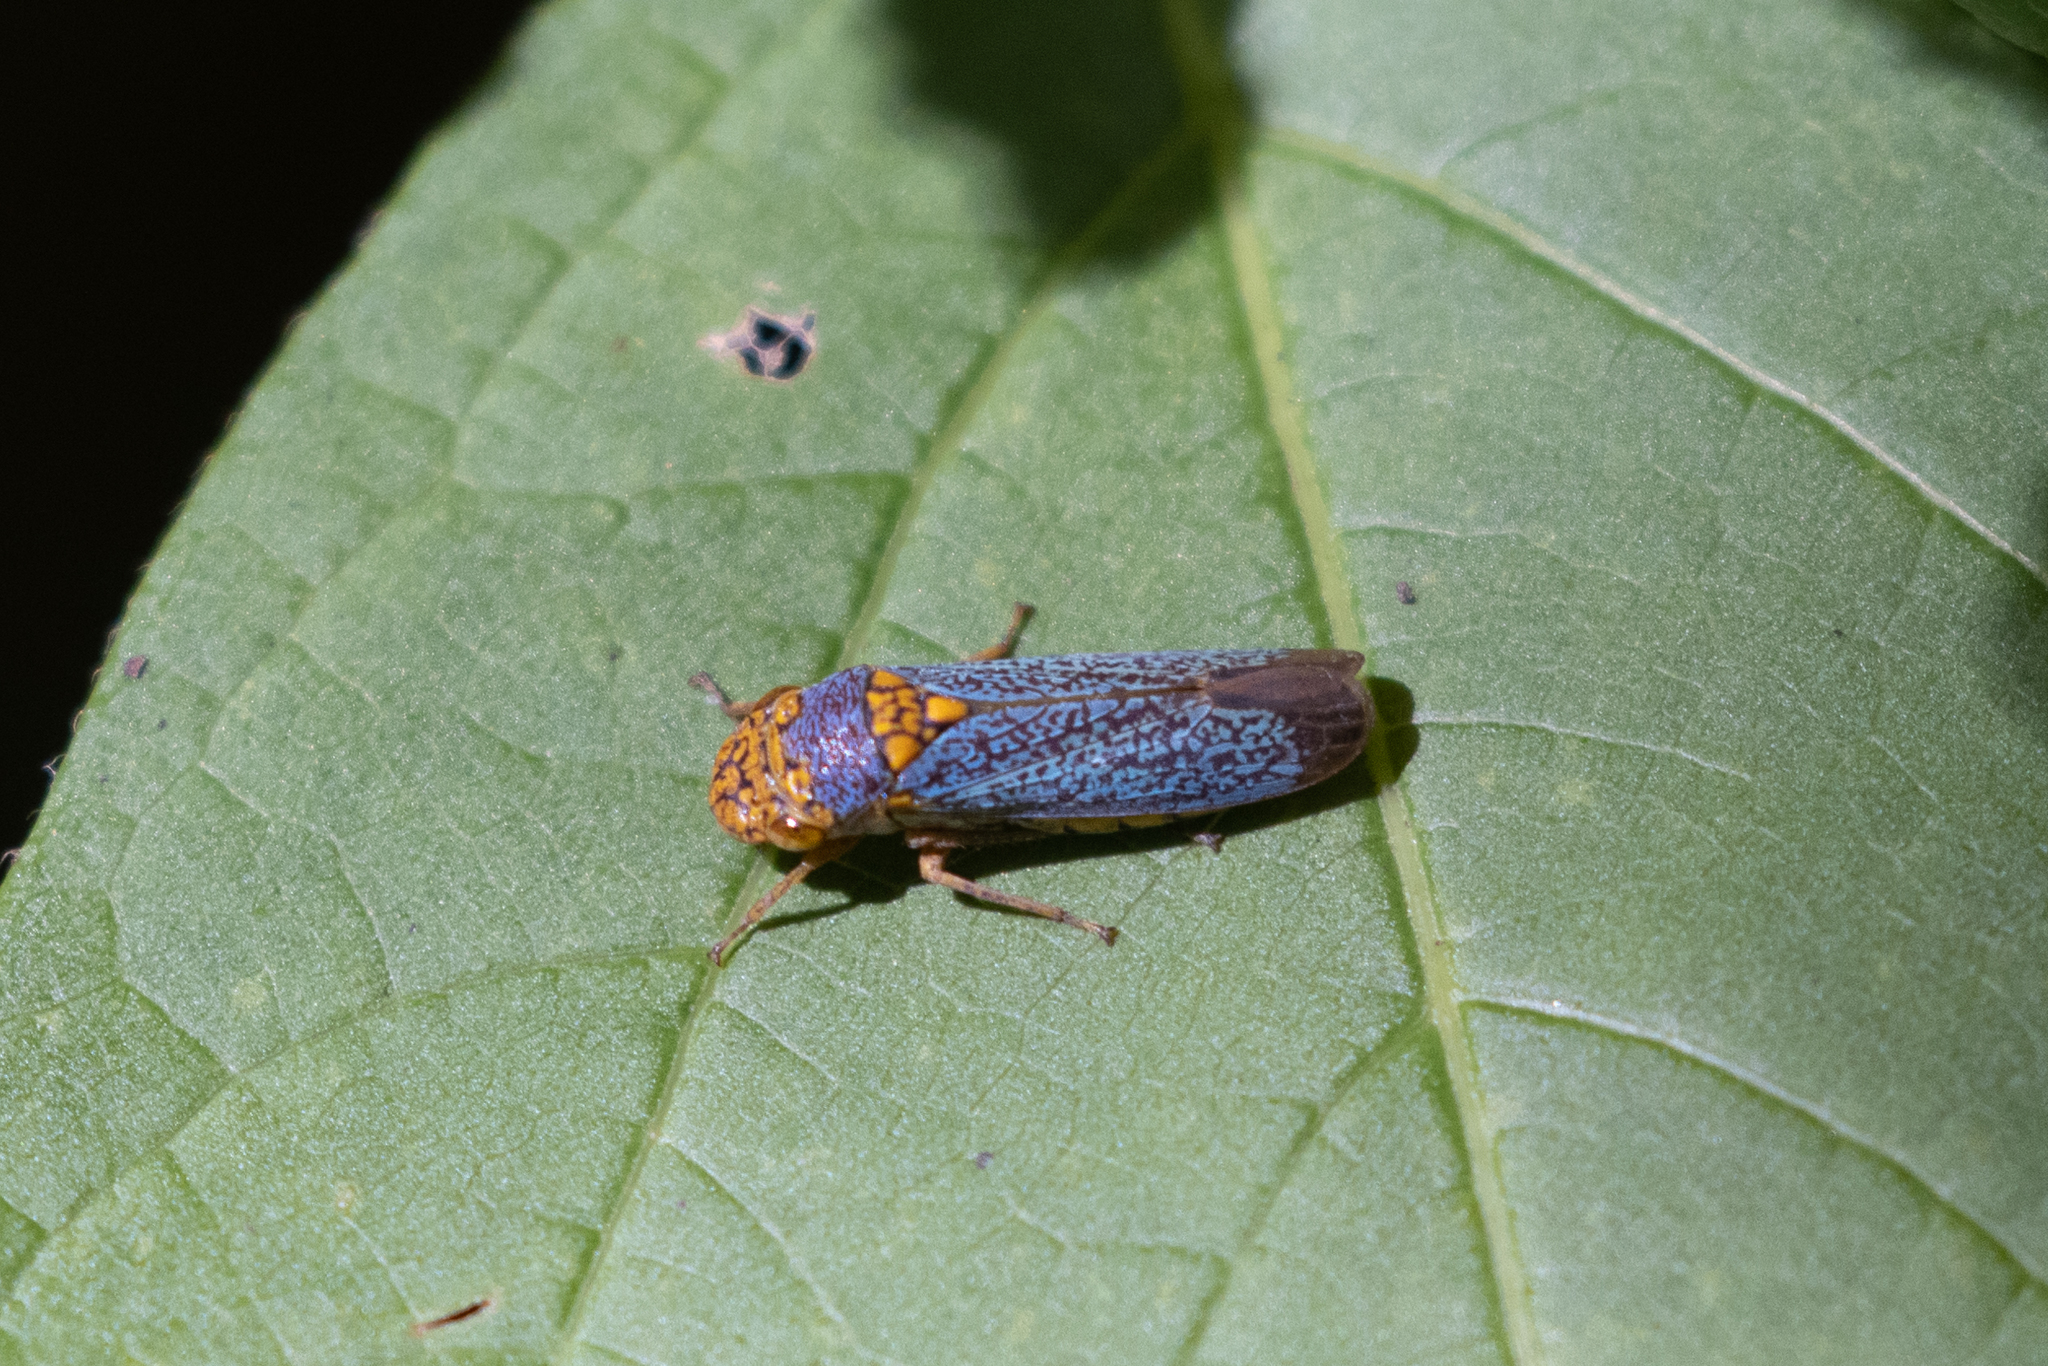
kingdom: Animalia
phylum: Arthropoda
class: Insecta
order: Hemiptera
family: Cicadellidae
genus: Oncometopia
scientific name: Oncometopia orbona
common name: Broad-headed sharpshooter
